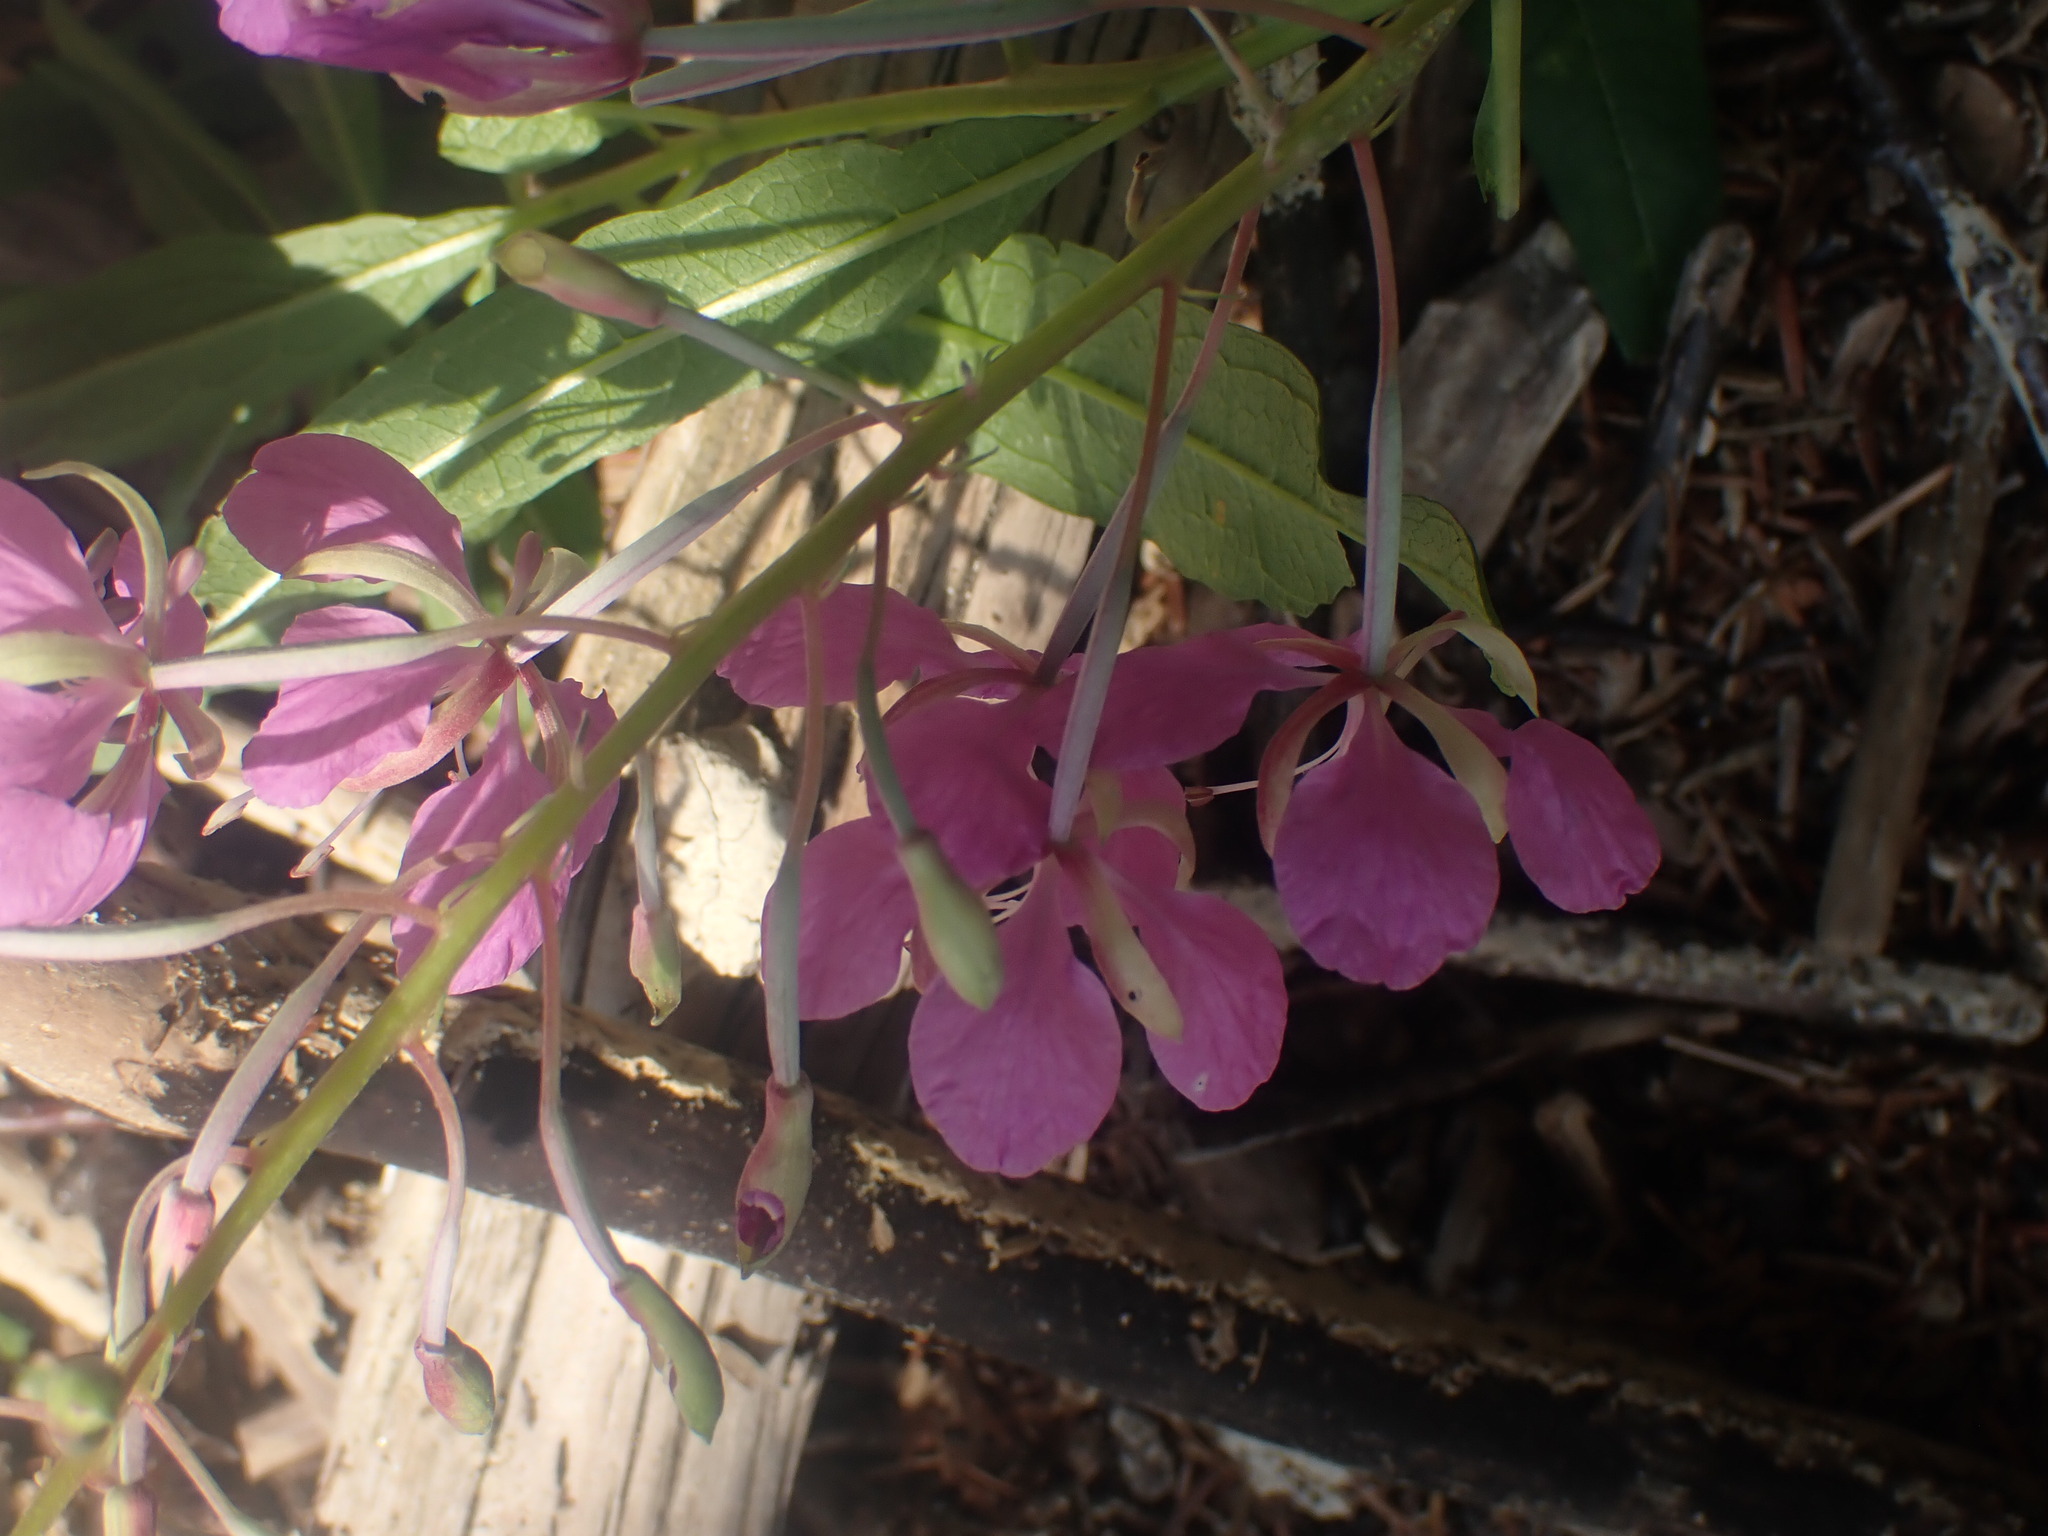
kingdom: Plantae
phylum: Tracheophyta
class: Magnoliopsida
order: Myrtales
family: Onagraceae
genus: Chamaenerion
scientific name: Chamaenerion angustifolium
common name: Fireweed
